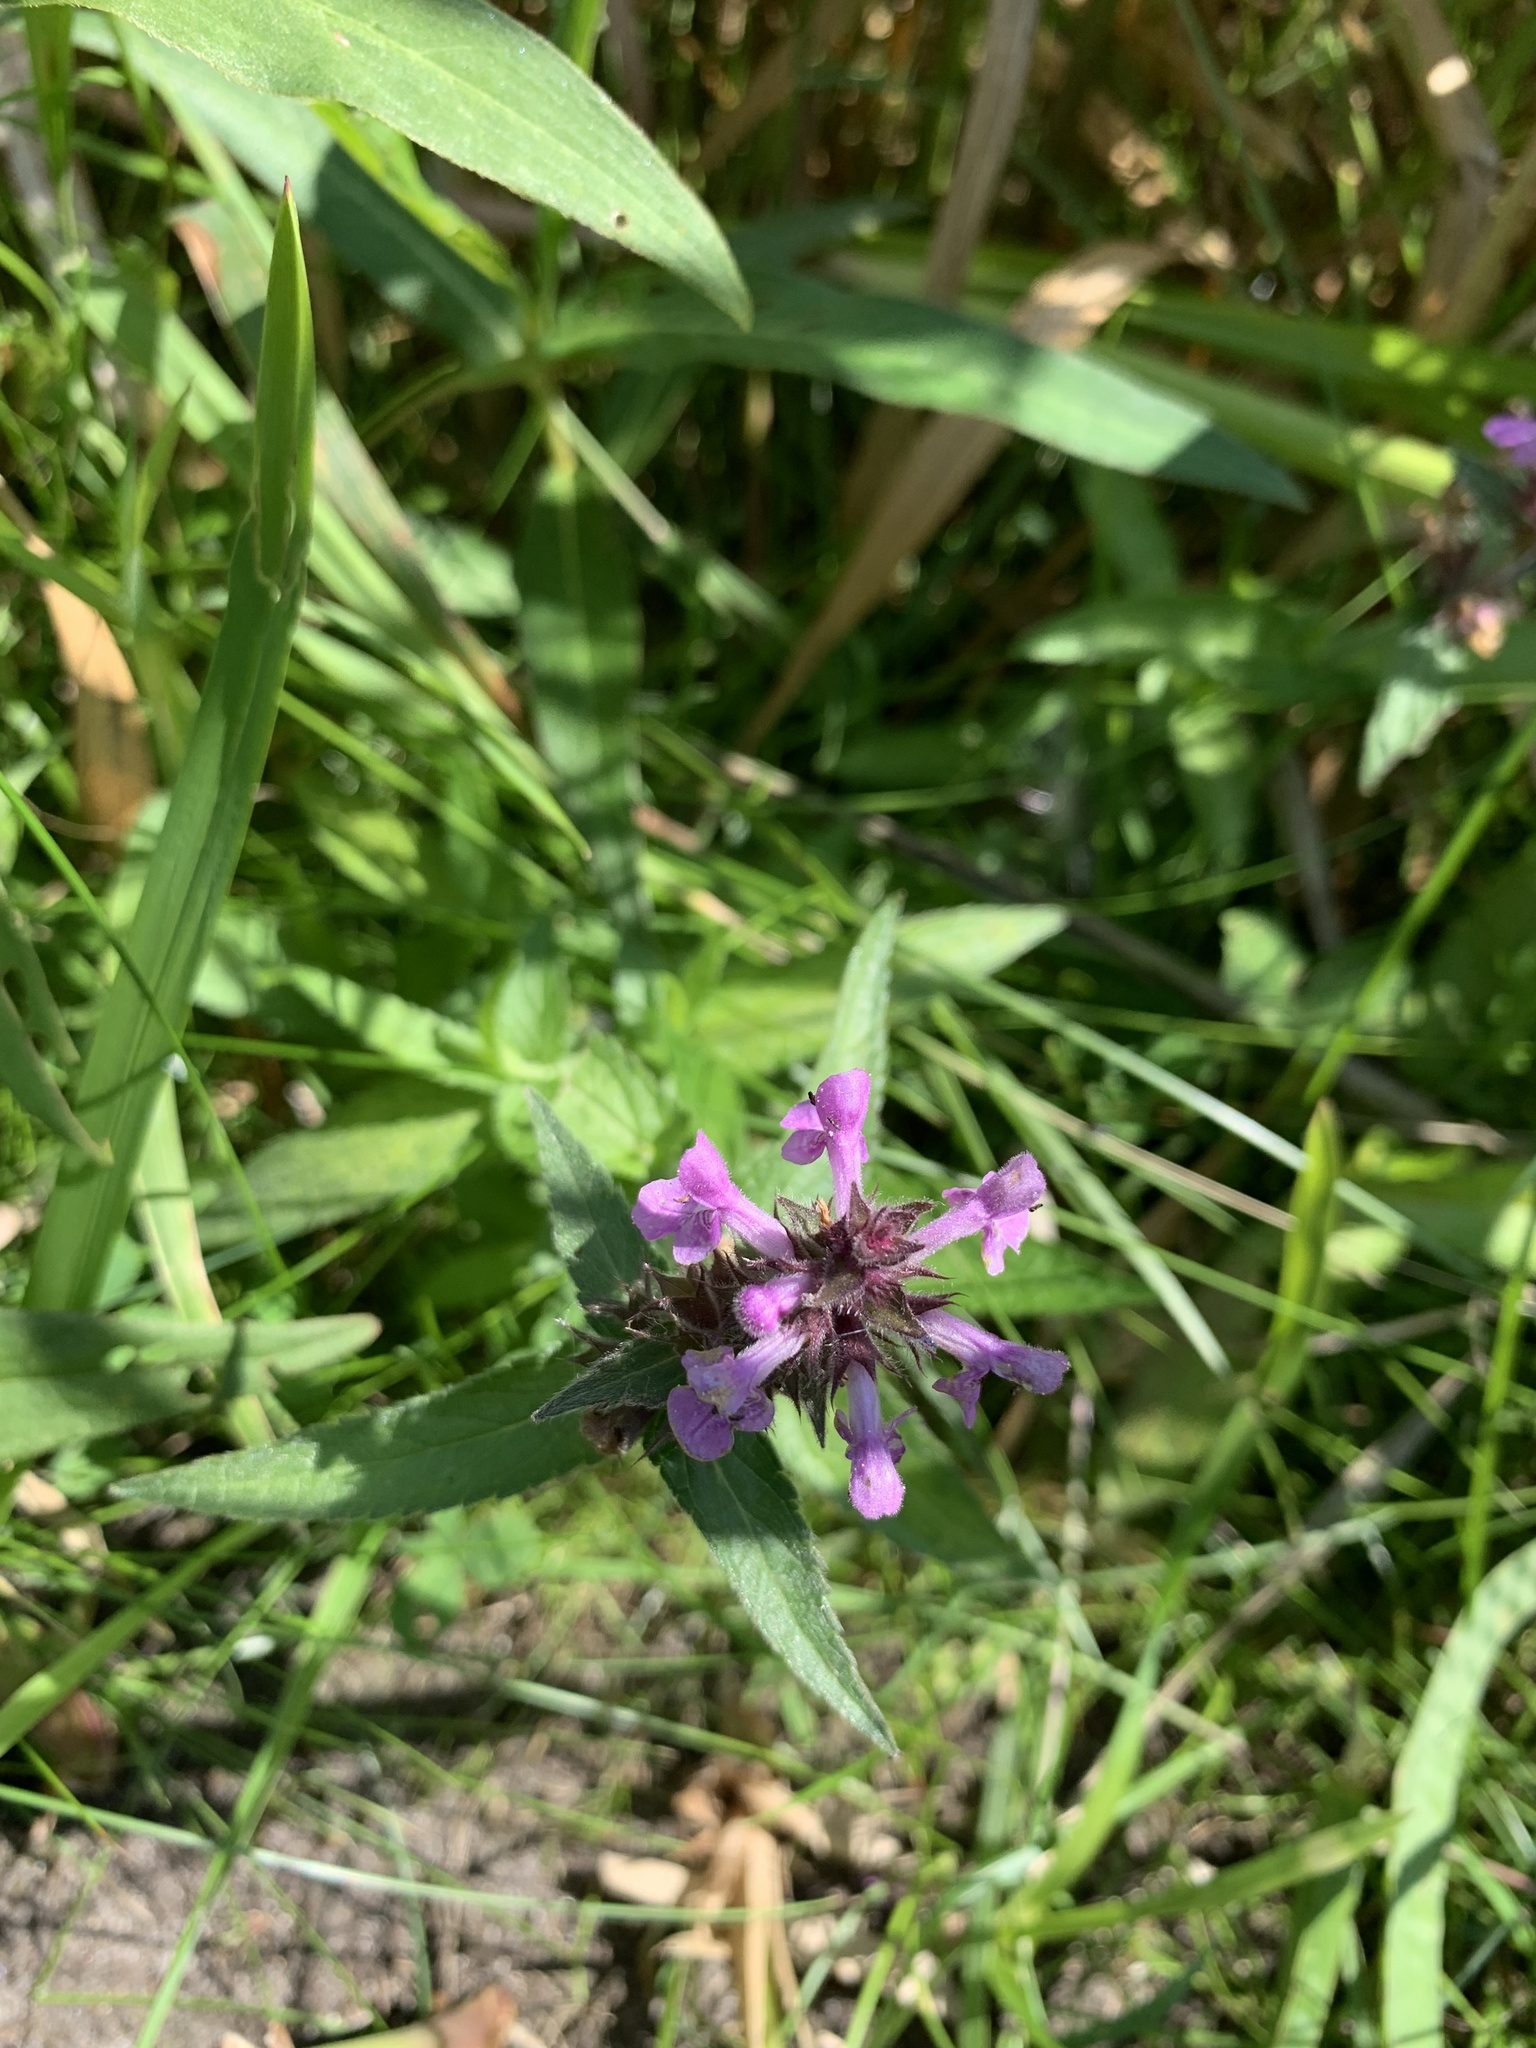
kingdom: Plantae
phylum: Tracheophyta
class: Magnoliopsida
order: Lamiales
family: Lamiaceae
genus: Stachys
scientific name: Stachys palustris
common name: Marsh woundwort
